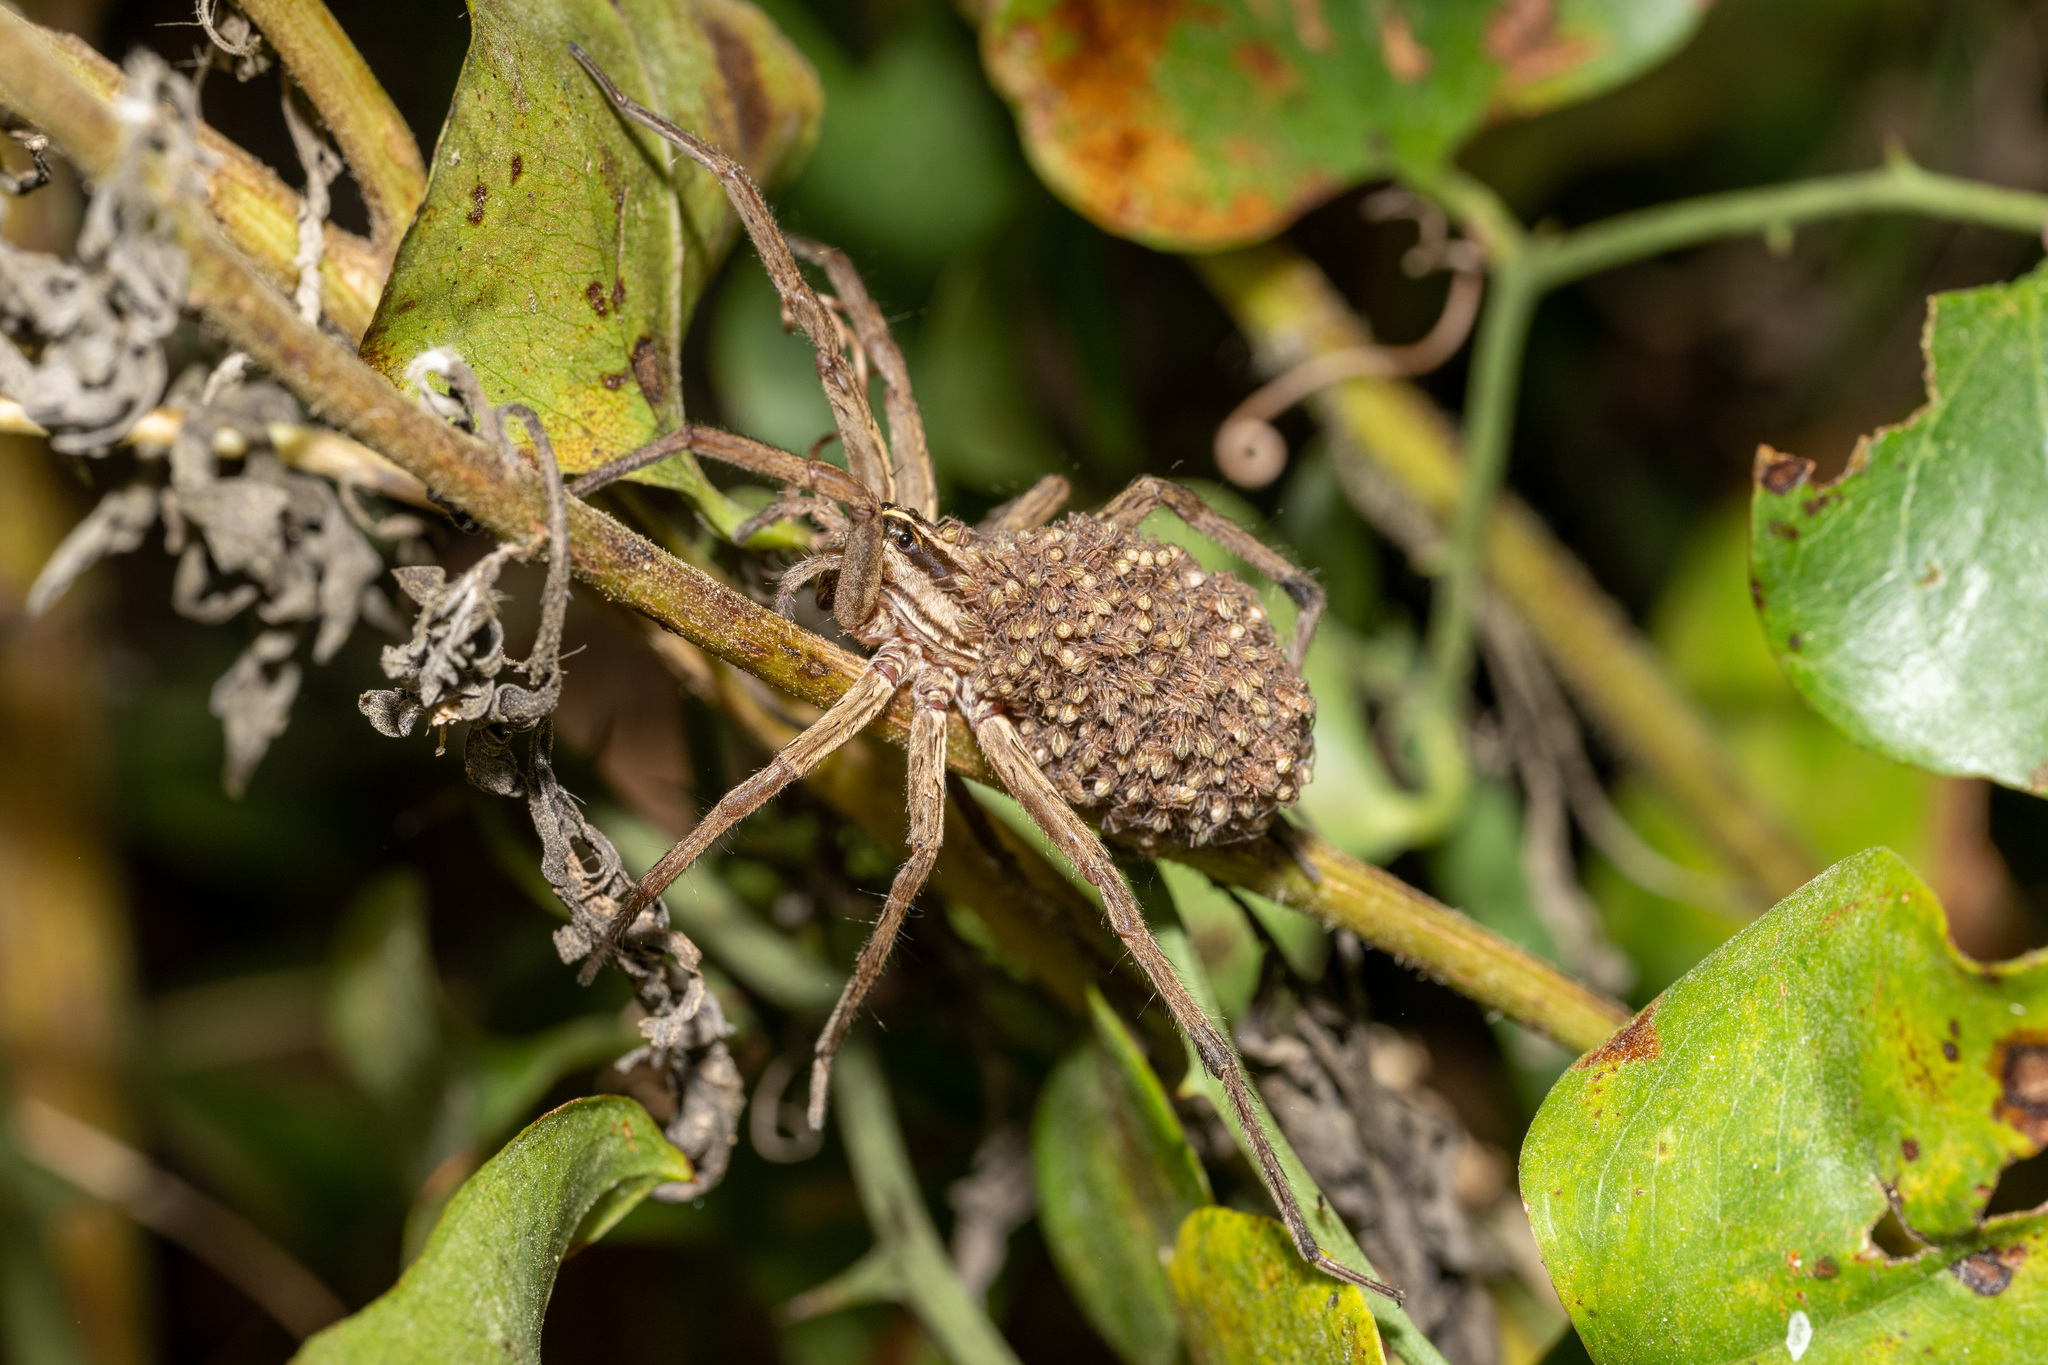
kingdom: Animalia
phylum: Arthropoda
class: Arachnida
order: Araneae
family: Lycosidae
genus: Rabidosa
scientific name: Rabidosa
